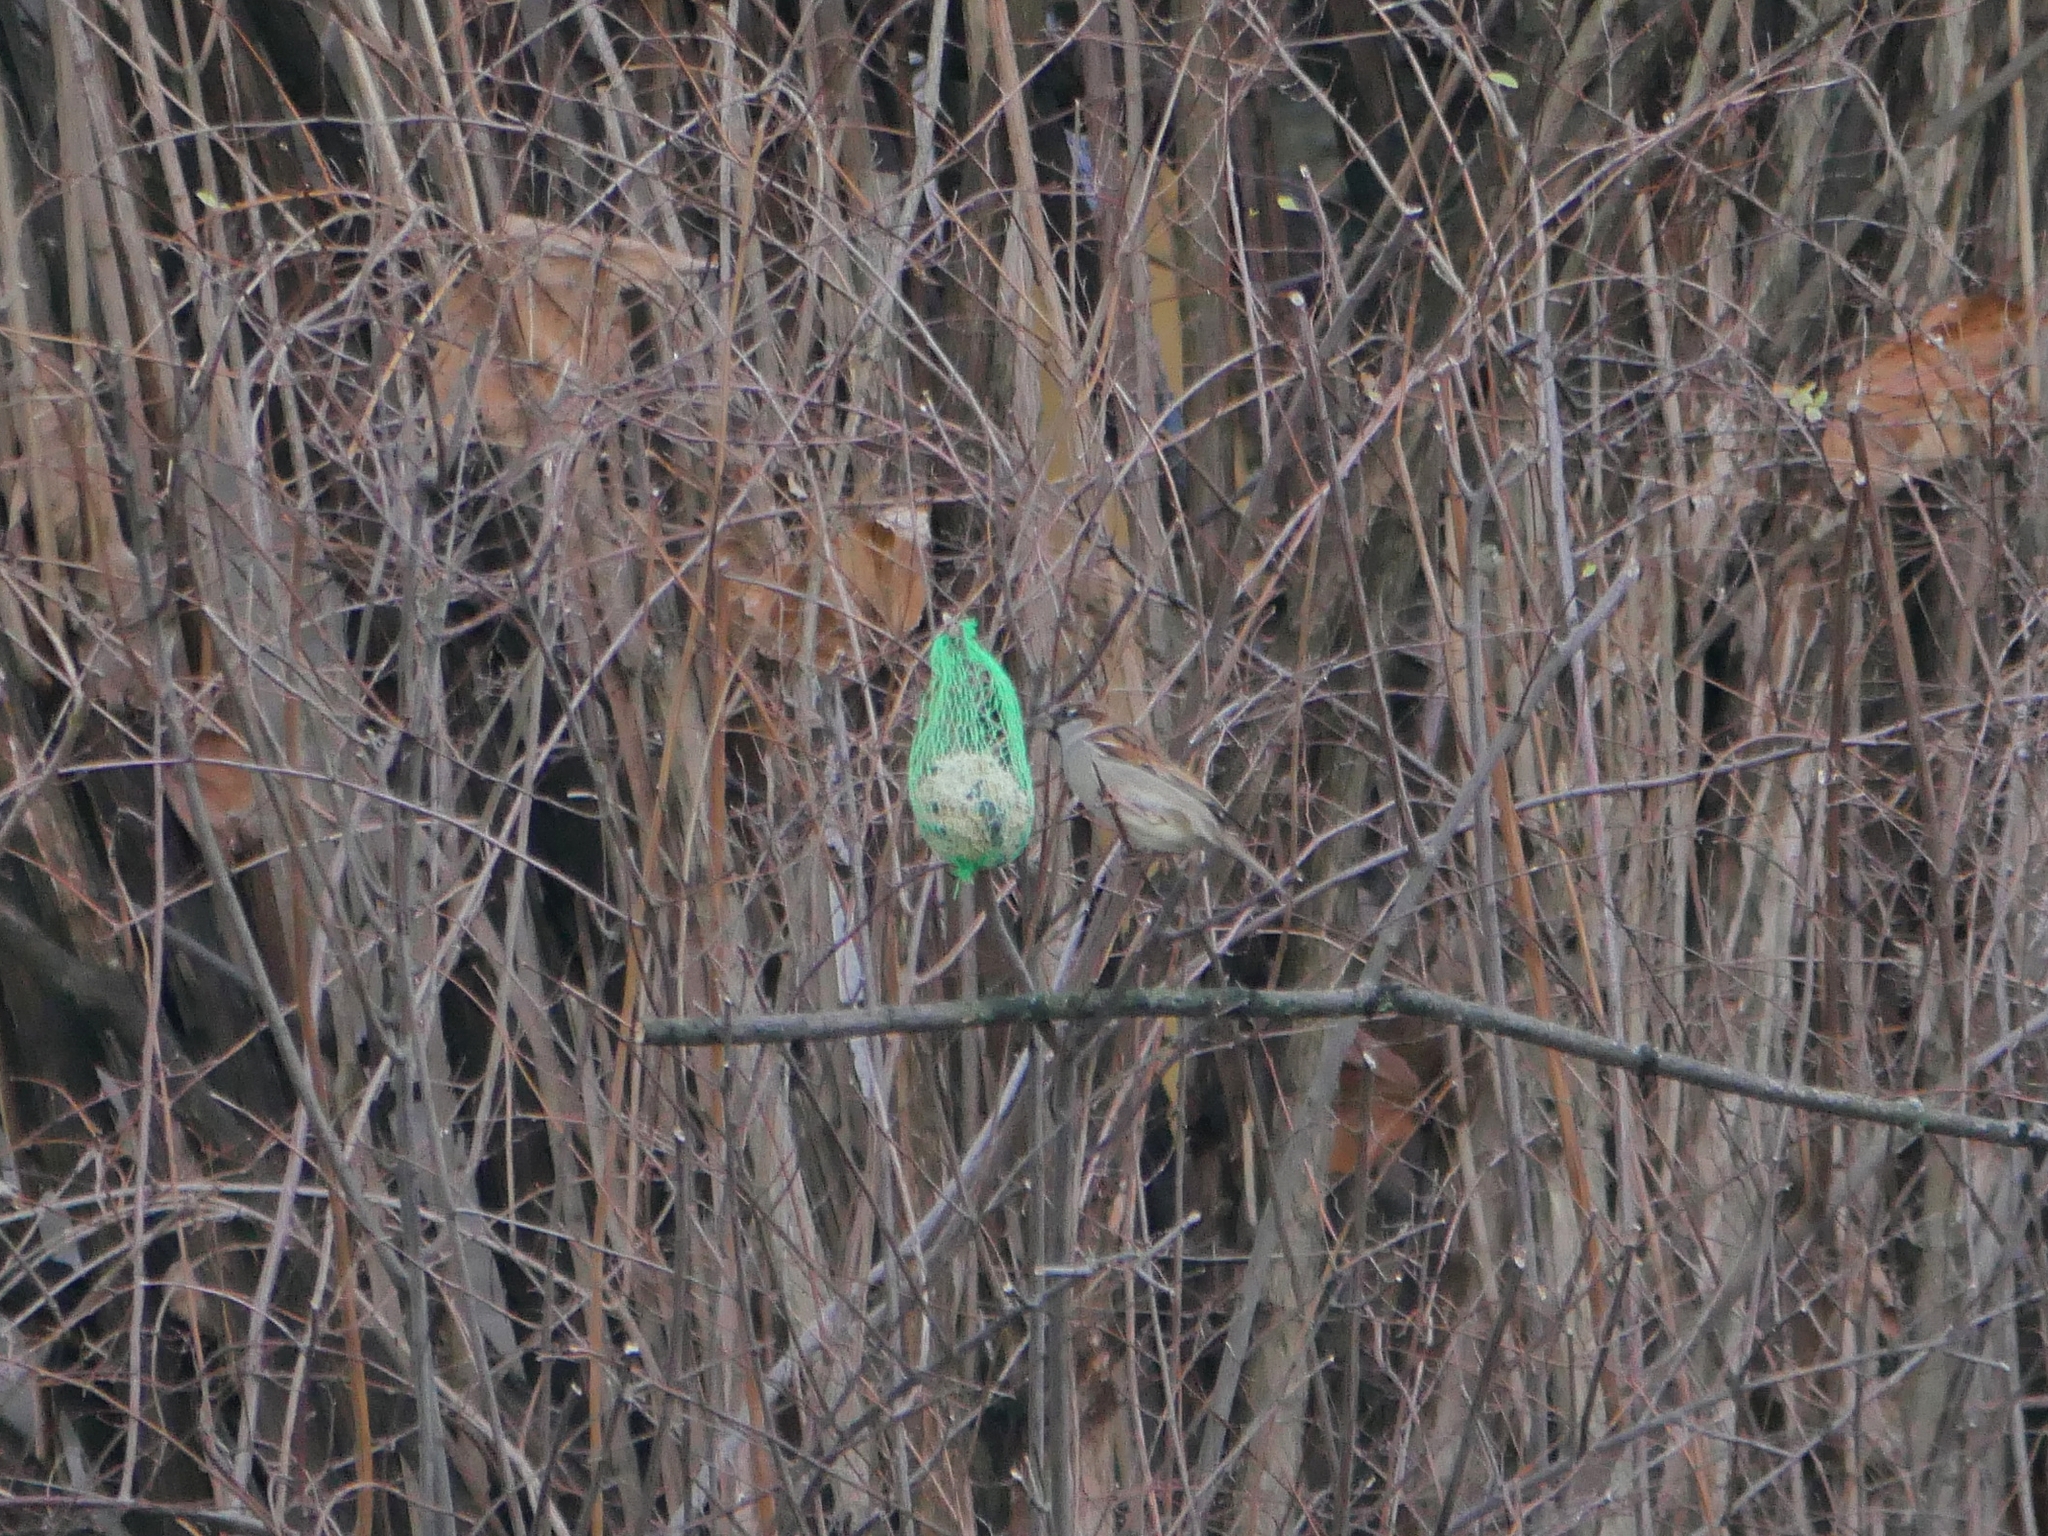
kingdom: Animalia
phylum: Chordata
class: Aves
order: Passeriformes
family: Passeridae
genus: Passer
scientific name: Passer domesticus
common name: House sparrow
